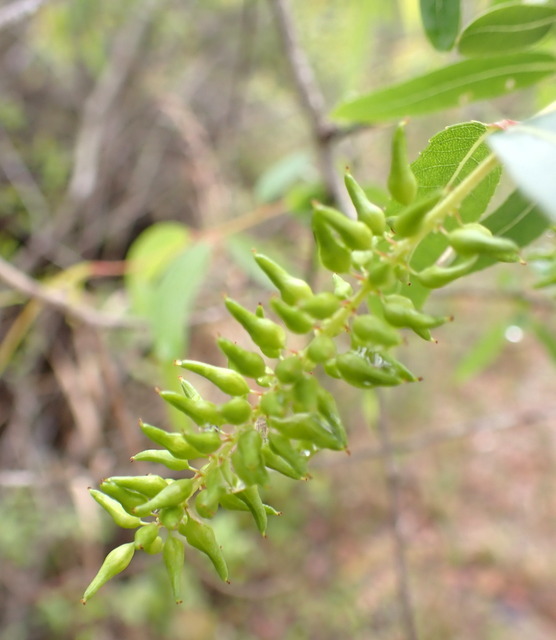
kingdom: Plantae
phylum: Tracheophyta
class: Magnoliopsida
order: Malpighiales
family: Salicaceae
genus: Salix
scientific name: Salix caroliniana
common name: Carolina willow
